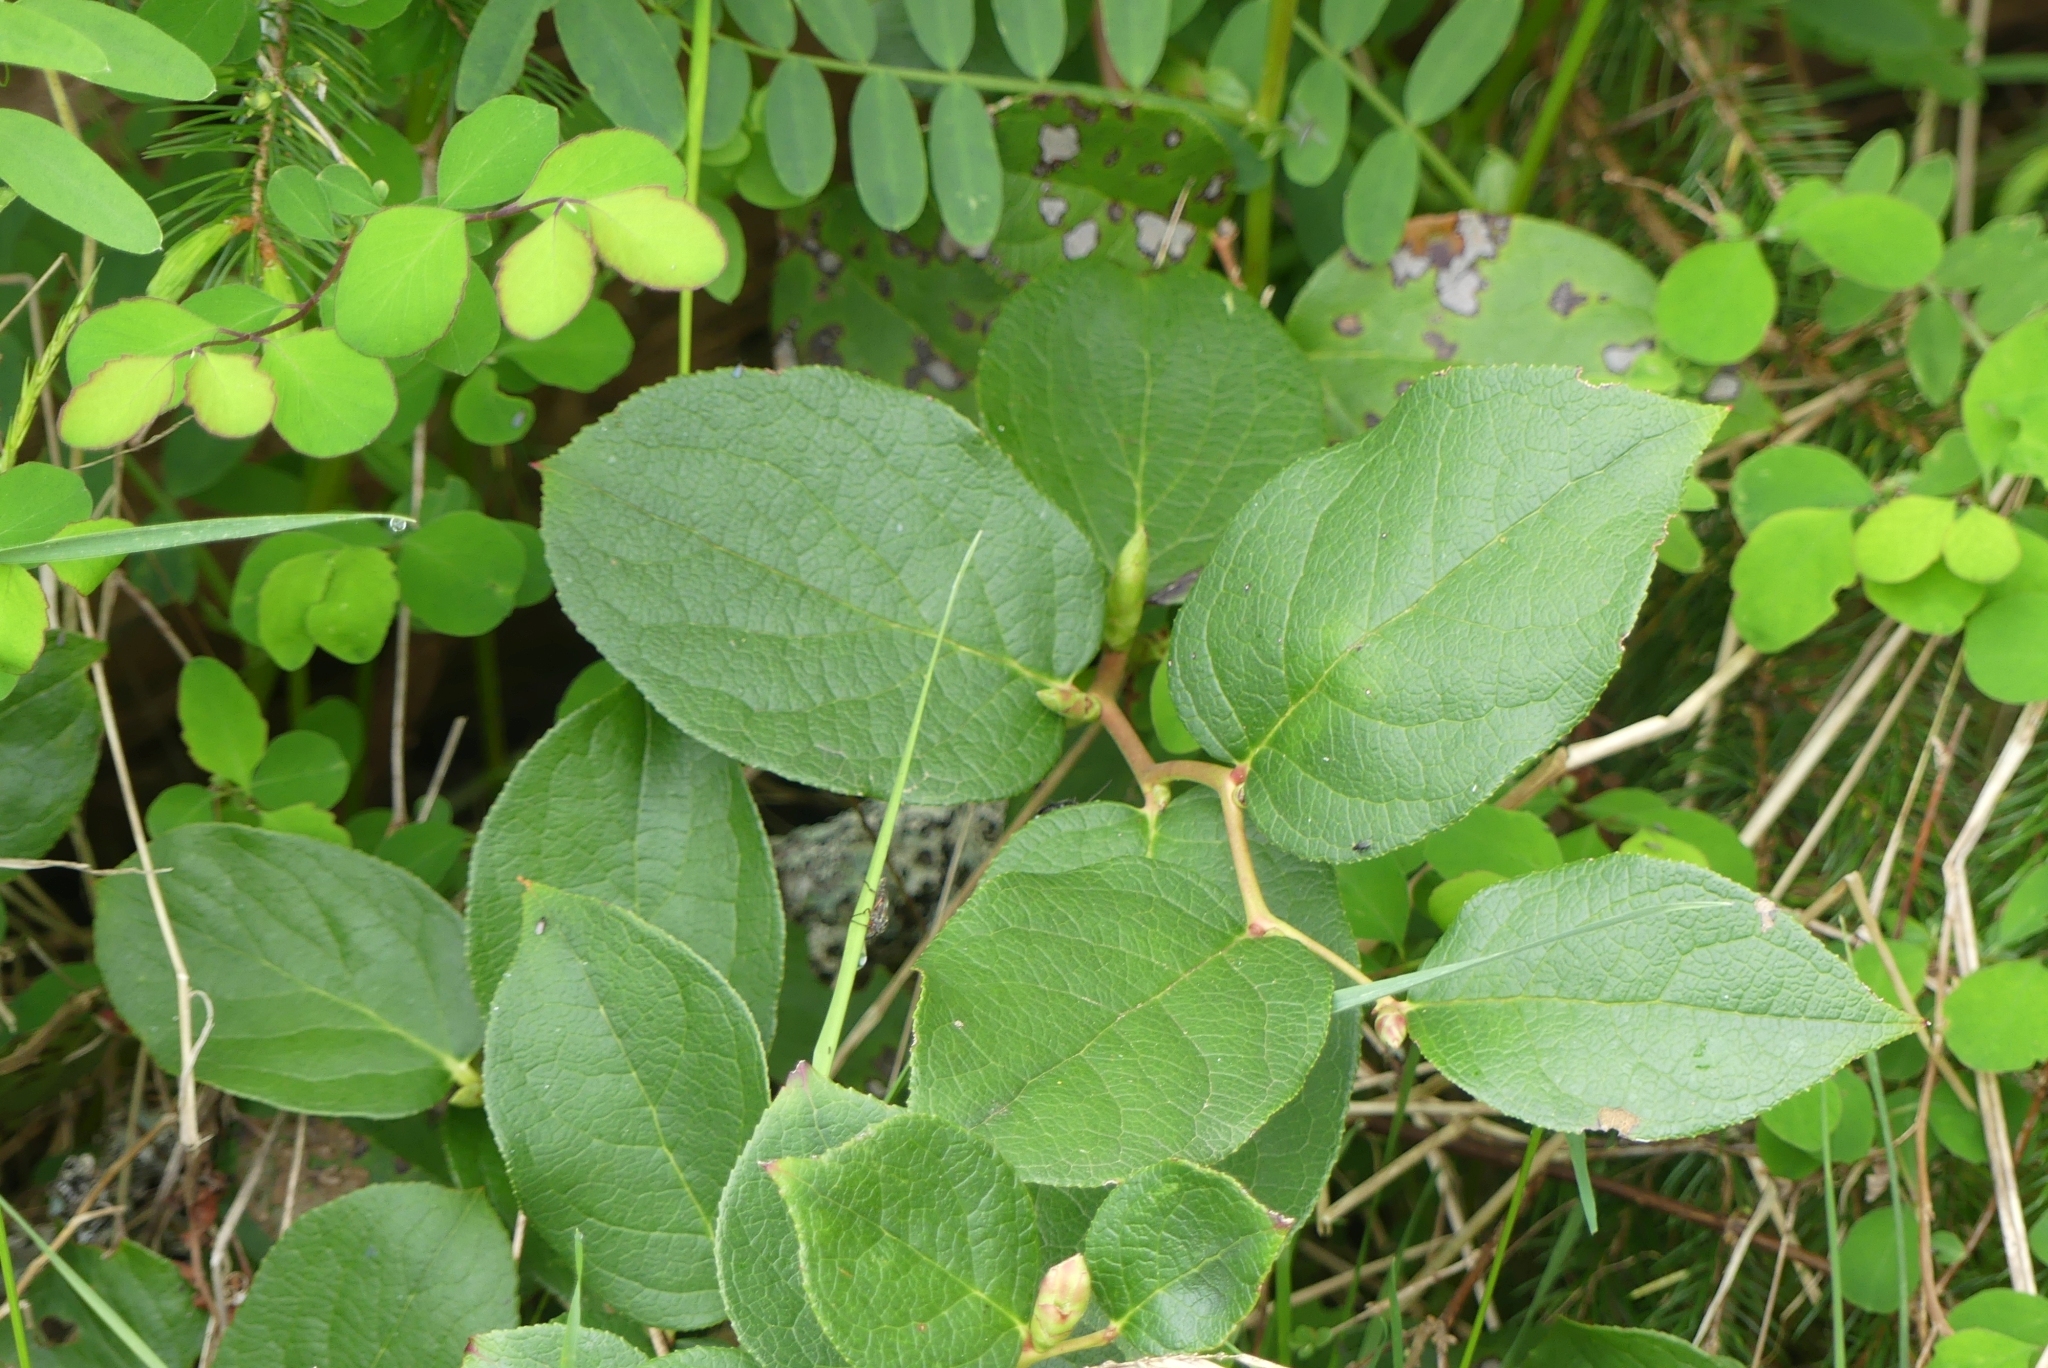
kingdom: Plantae
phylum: Tracheophyta
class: Magnoliopsida
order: Ericales
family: Ericaceae
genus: Gaultheria
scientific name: Gaultheria shallon
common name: Shallon
